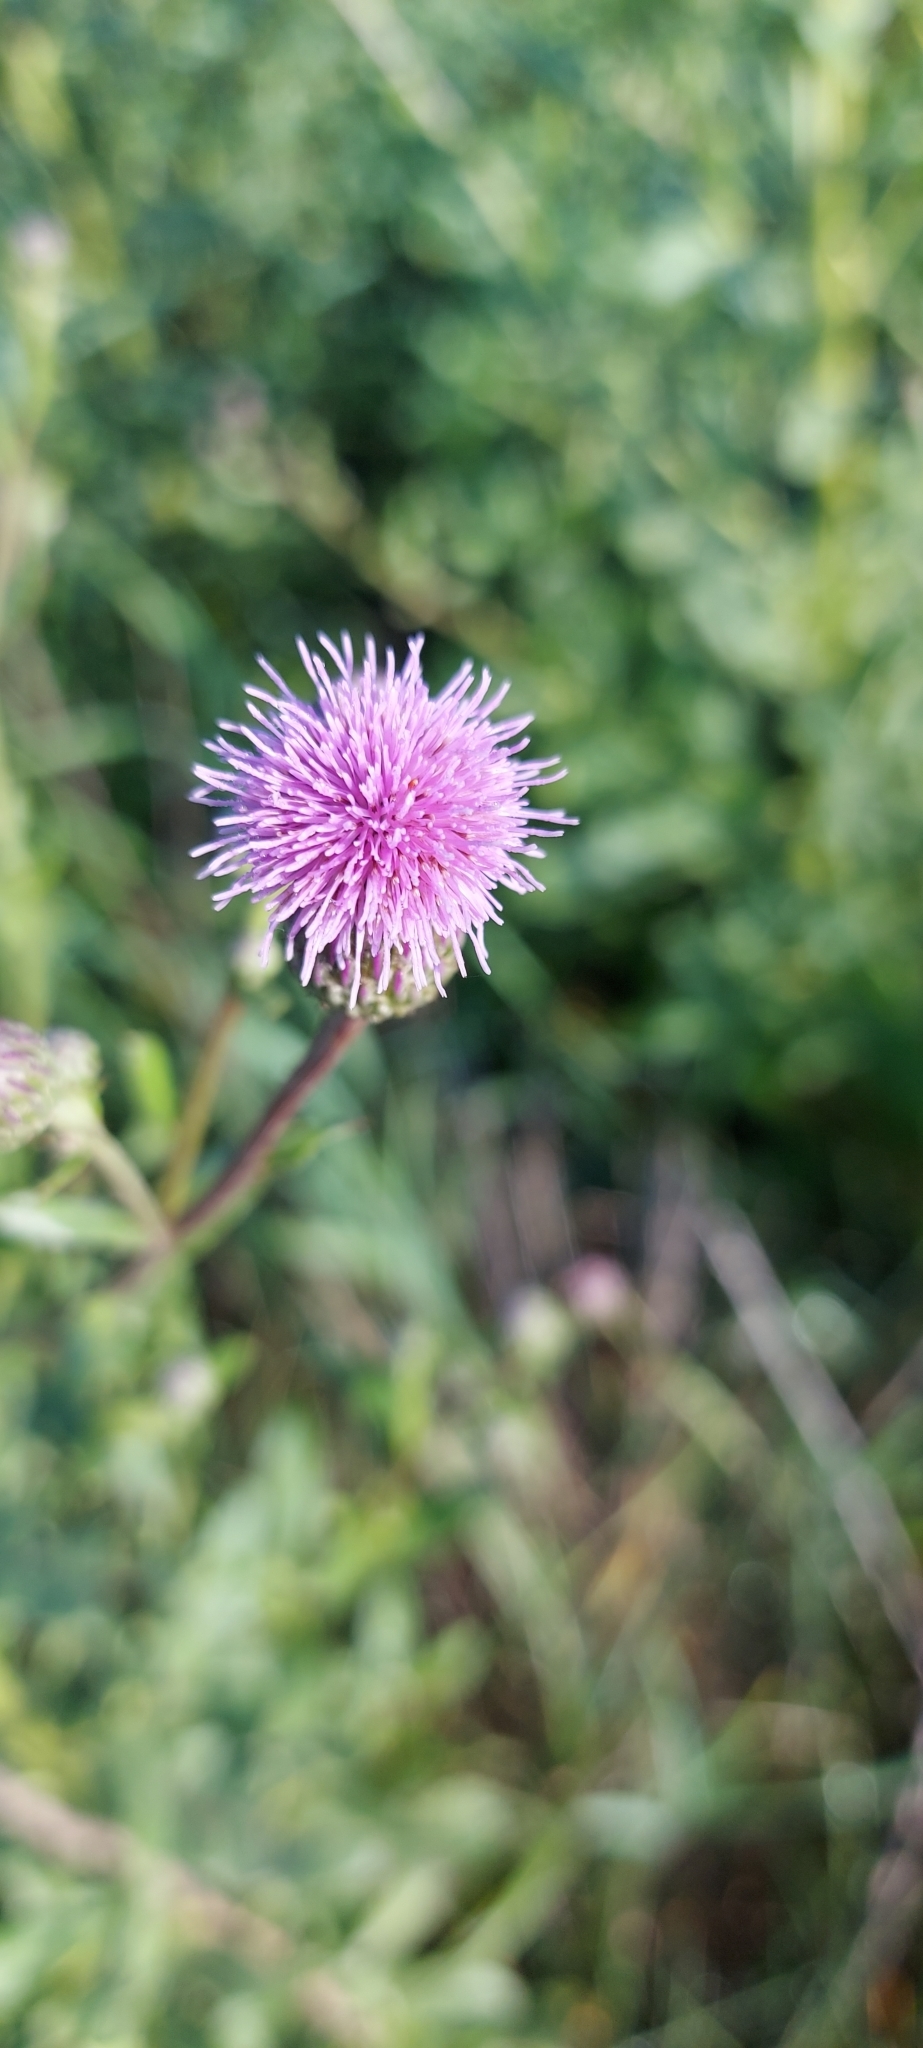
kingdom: Plantae
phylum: Tracheophyta
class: Magnoliopsida
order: Asterales
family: Asteraceae
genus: Cirsium
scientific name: Cirsium arvense
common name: Creeping thistle
